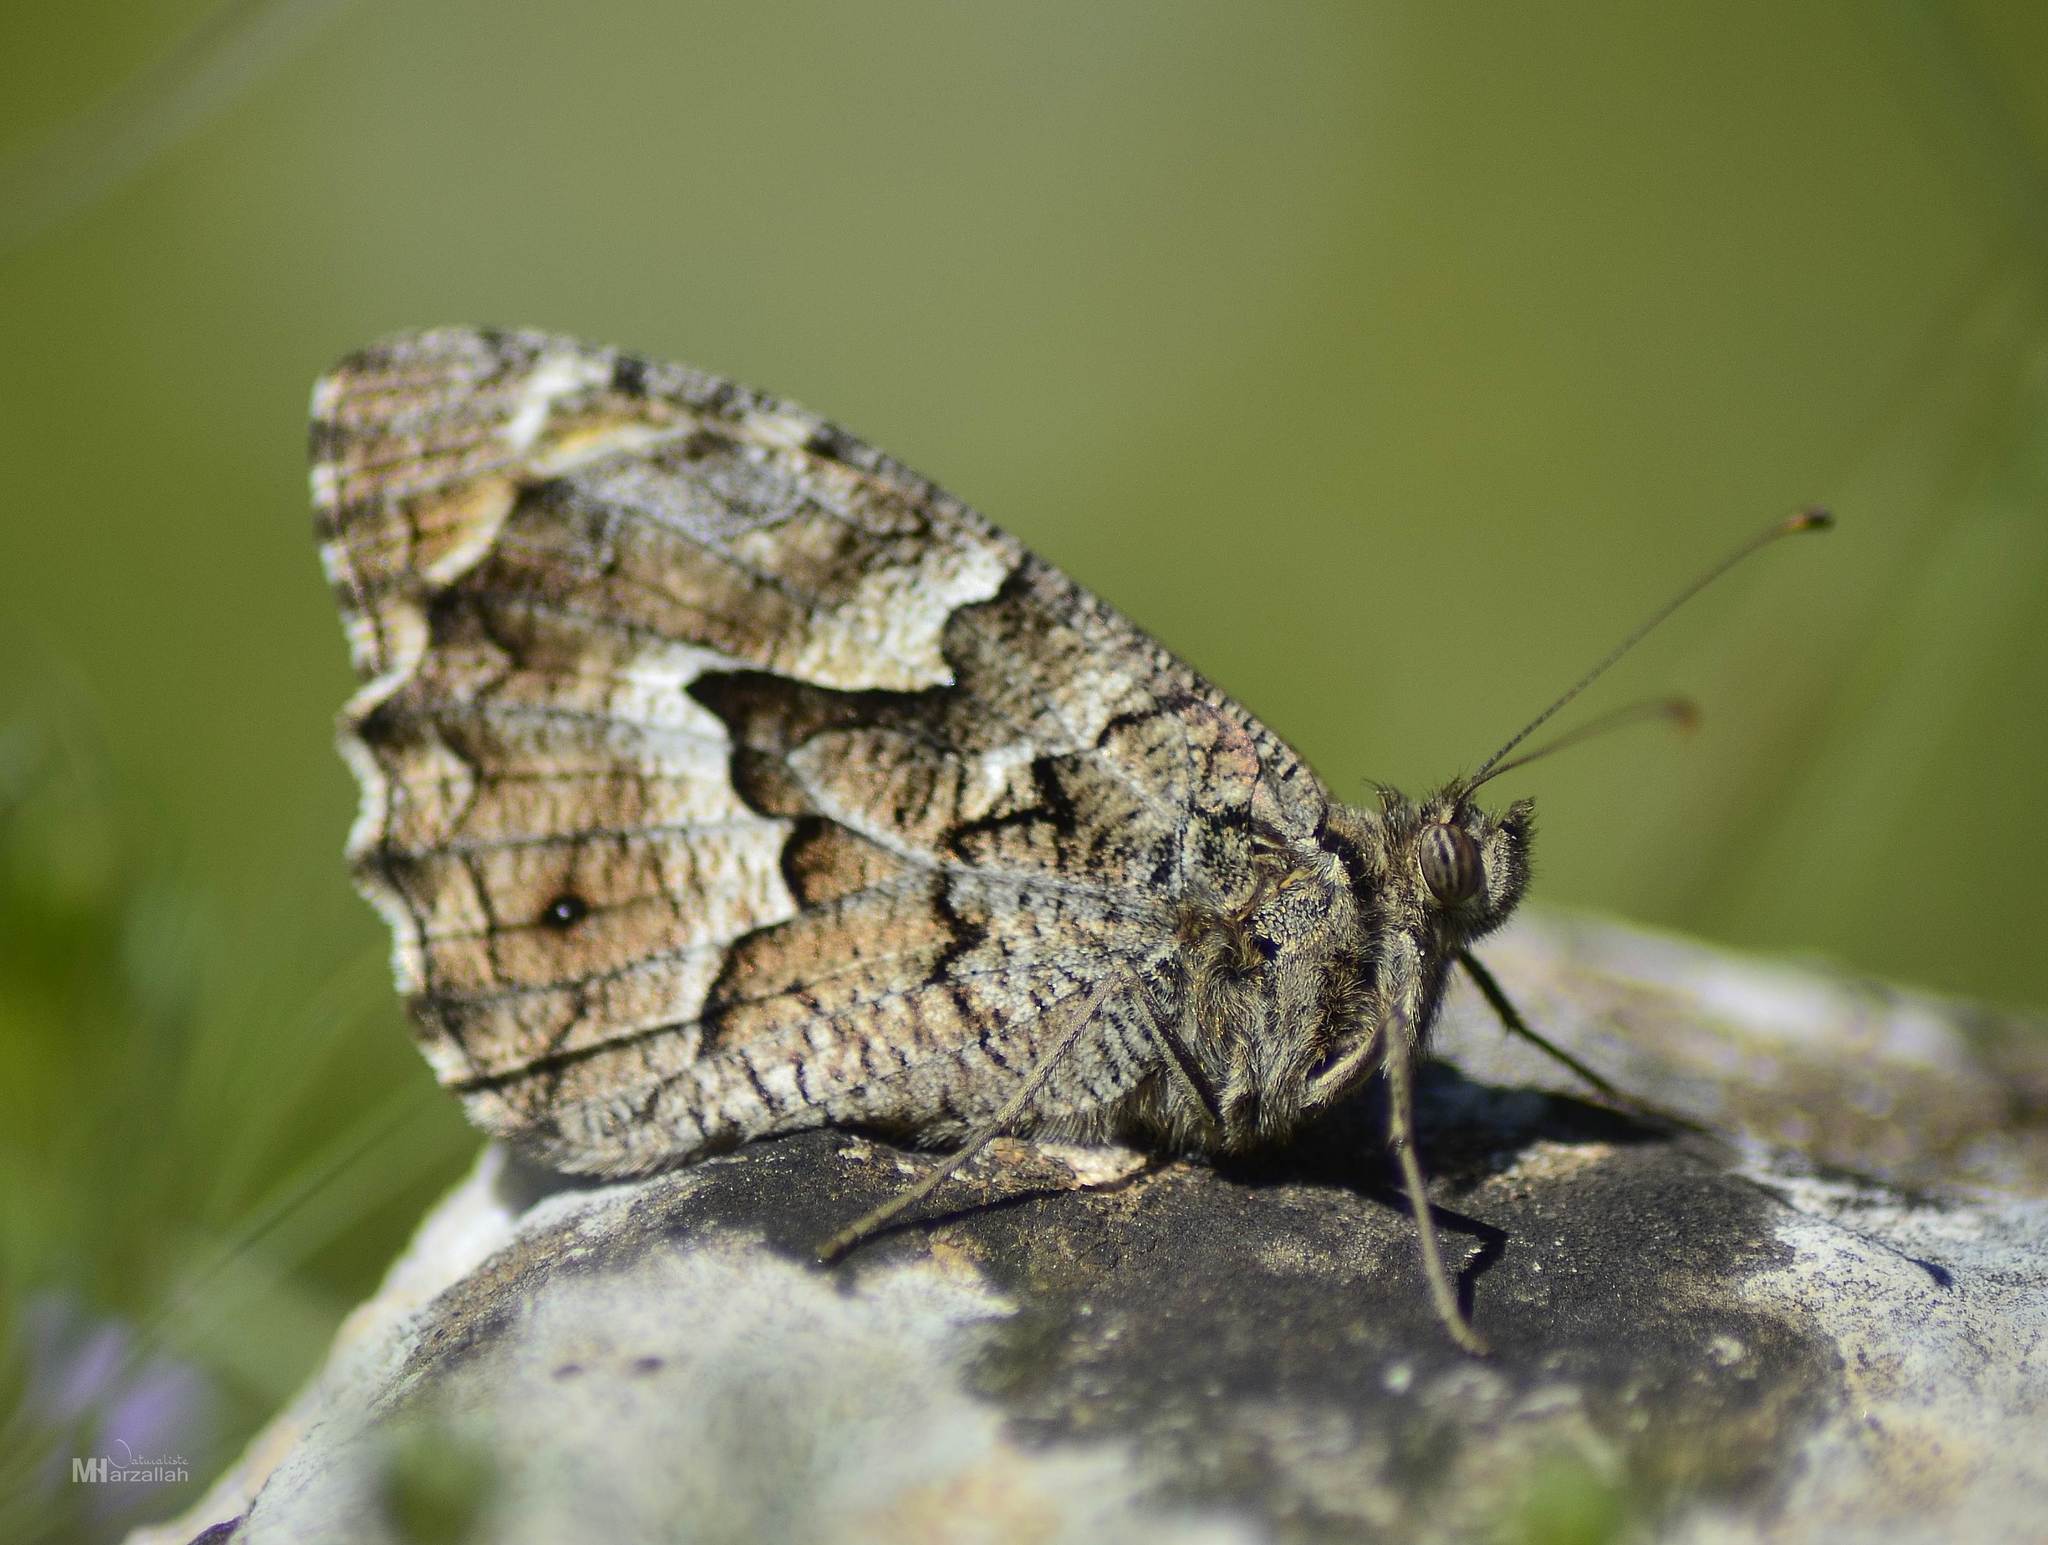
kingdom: Animalia
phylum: Arthropoda
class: Insecta
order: Lepidoptera
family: Nymphalidae
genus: Hipparchia
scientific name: Hipparchia algirica
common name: Mountain grayling
